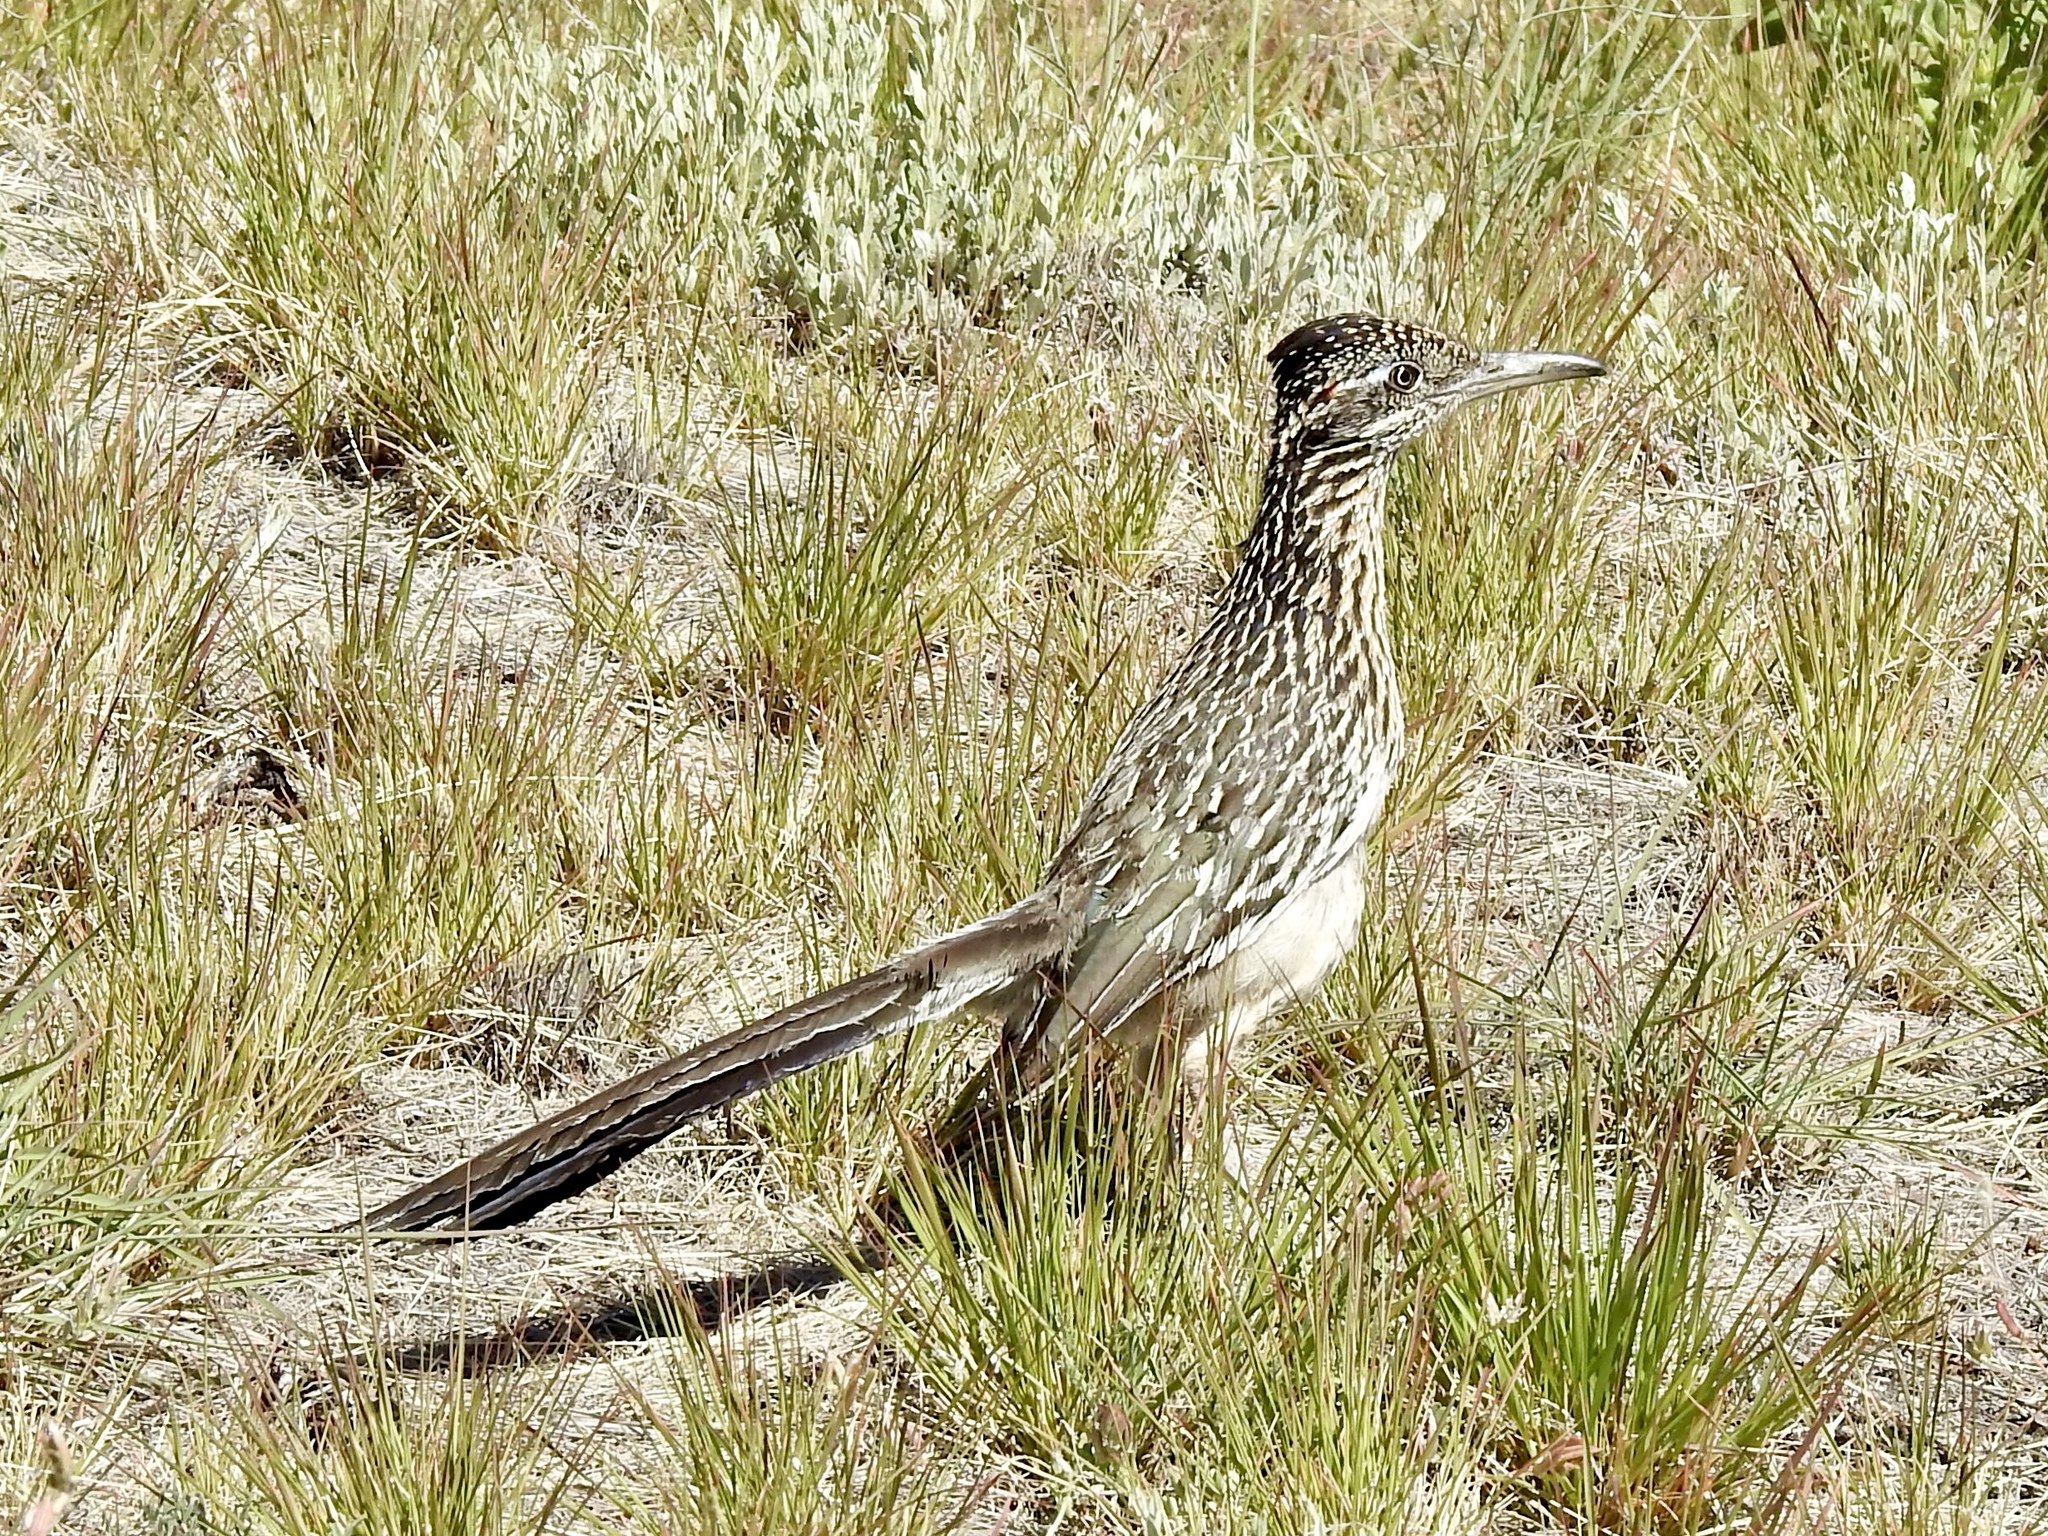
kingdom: Animalia
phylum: Chordata
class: Aves
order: Cuculiformes
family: Cuculidae
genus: Geococcyx
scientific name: Geococcyx californianus
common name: Greater roadrunner
